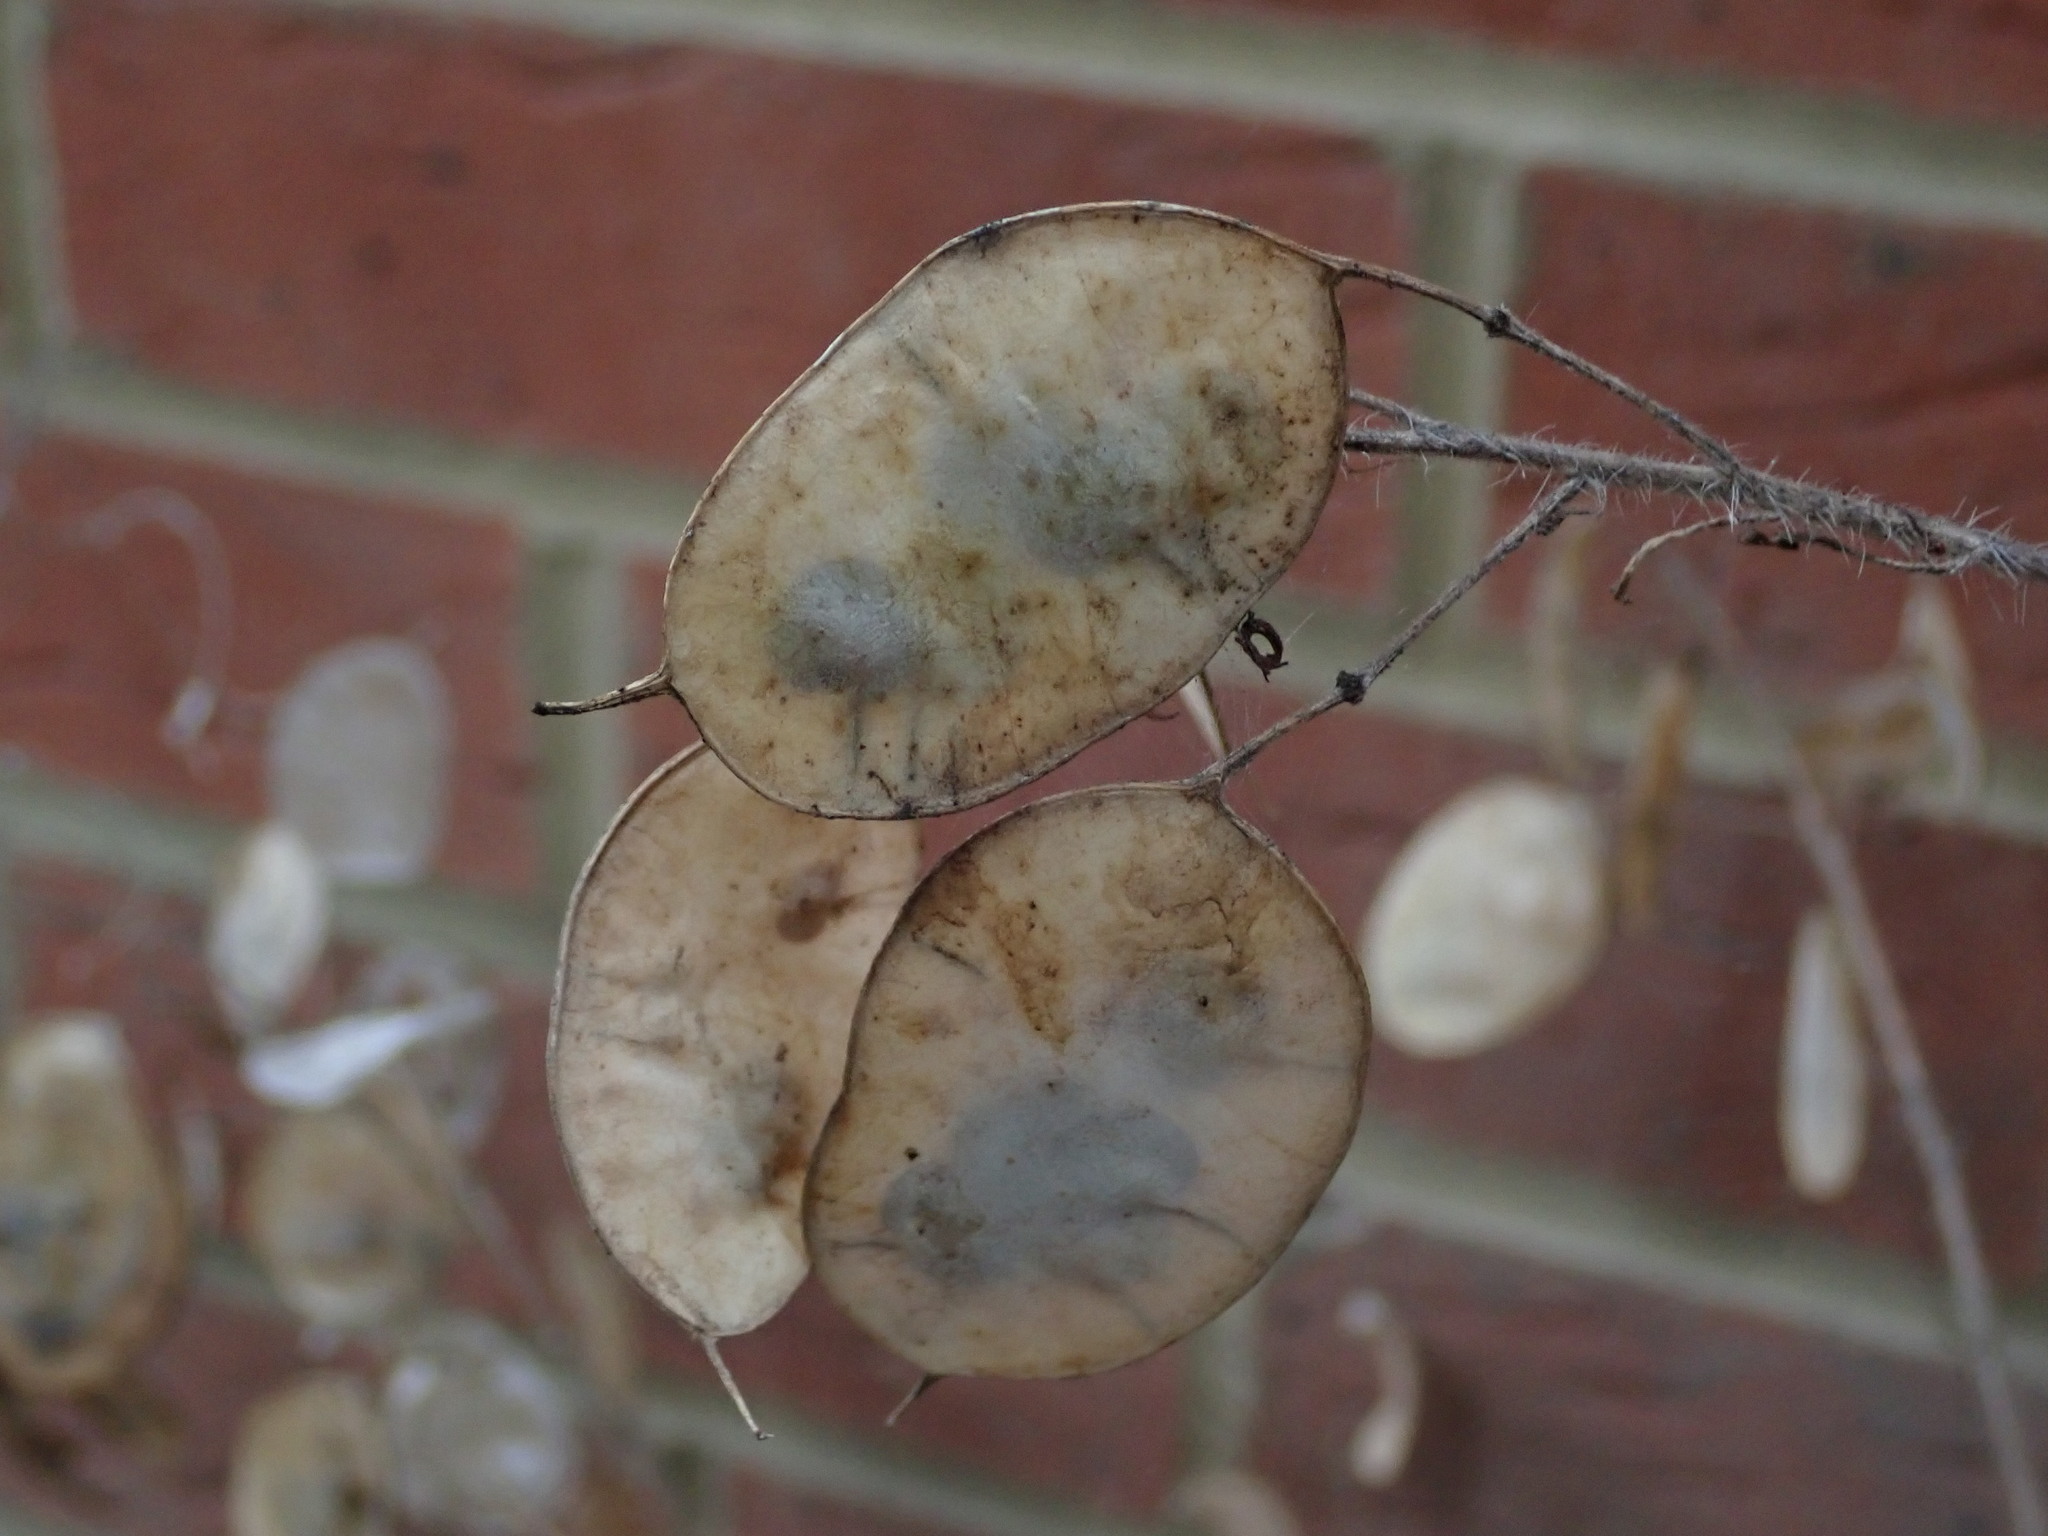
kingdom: Plantae
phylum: Tracheophyta
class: Magnoliopsida
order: Brassicales
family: Brassicaceae
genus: Lunaria
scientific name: Lunaria annua
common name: Honesty
